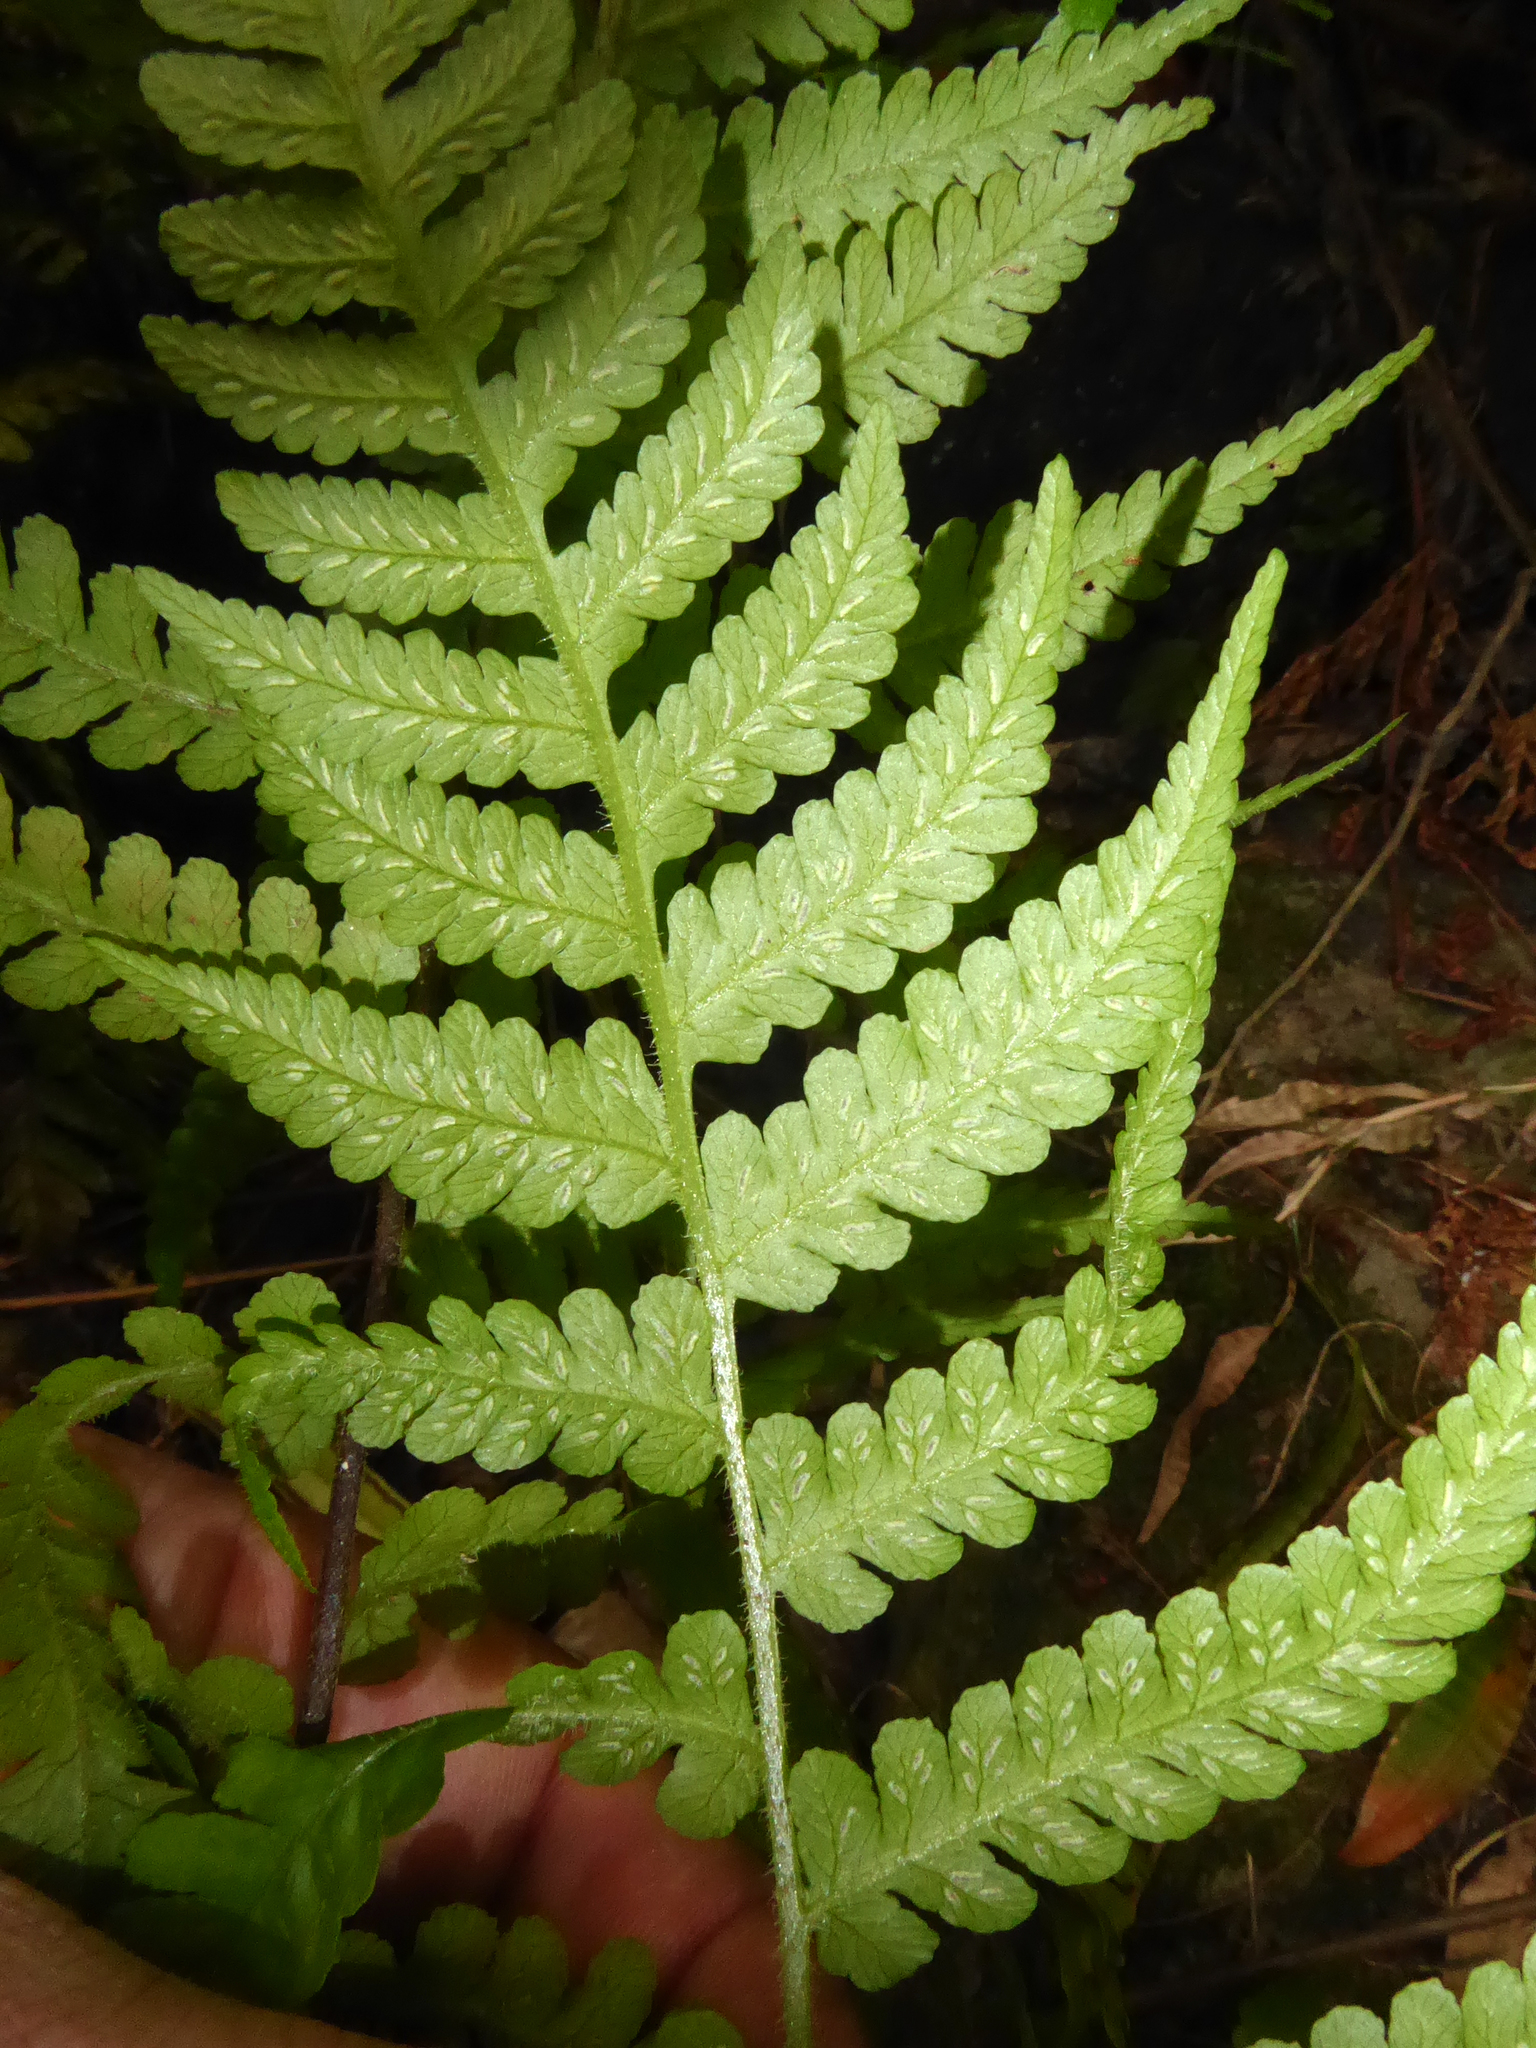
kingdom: Plantae
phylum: Tracheophyta
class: Polypodiopsida
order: Polypodiales
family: Athyriaceae
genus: Deparia
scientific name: Deparia petersenii
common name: Japanese false spleenwort
